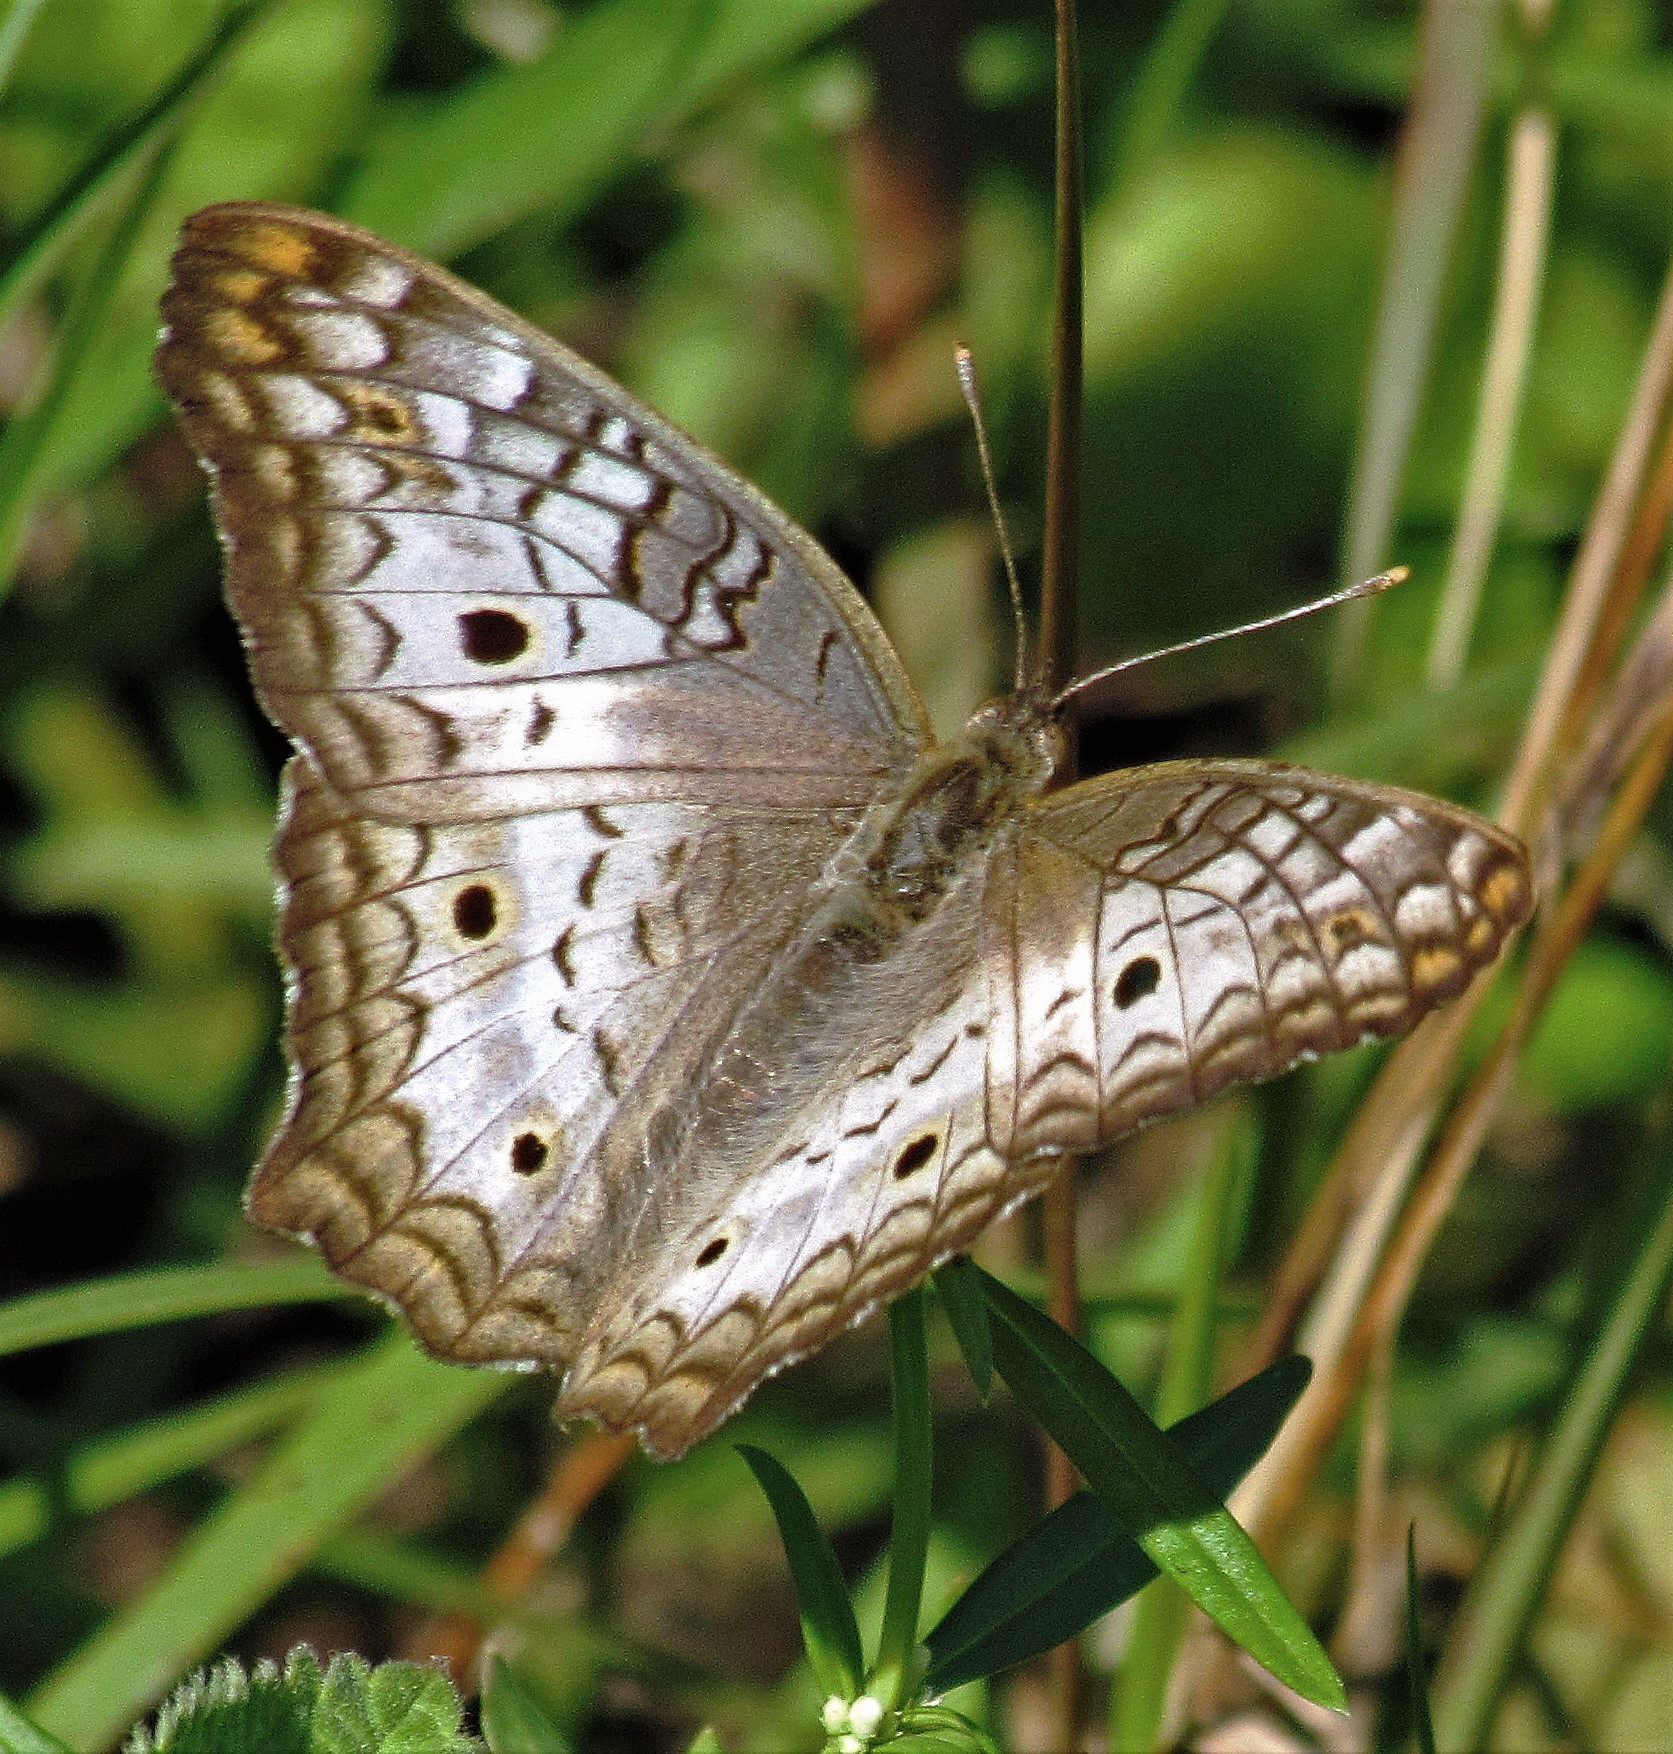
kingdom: Animalia
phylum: Arthropoda
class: Insecta
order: Lepidoptera
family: Nymphalidae
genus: Anartia
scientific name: Anartia jatrophae
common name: White peacock
